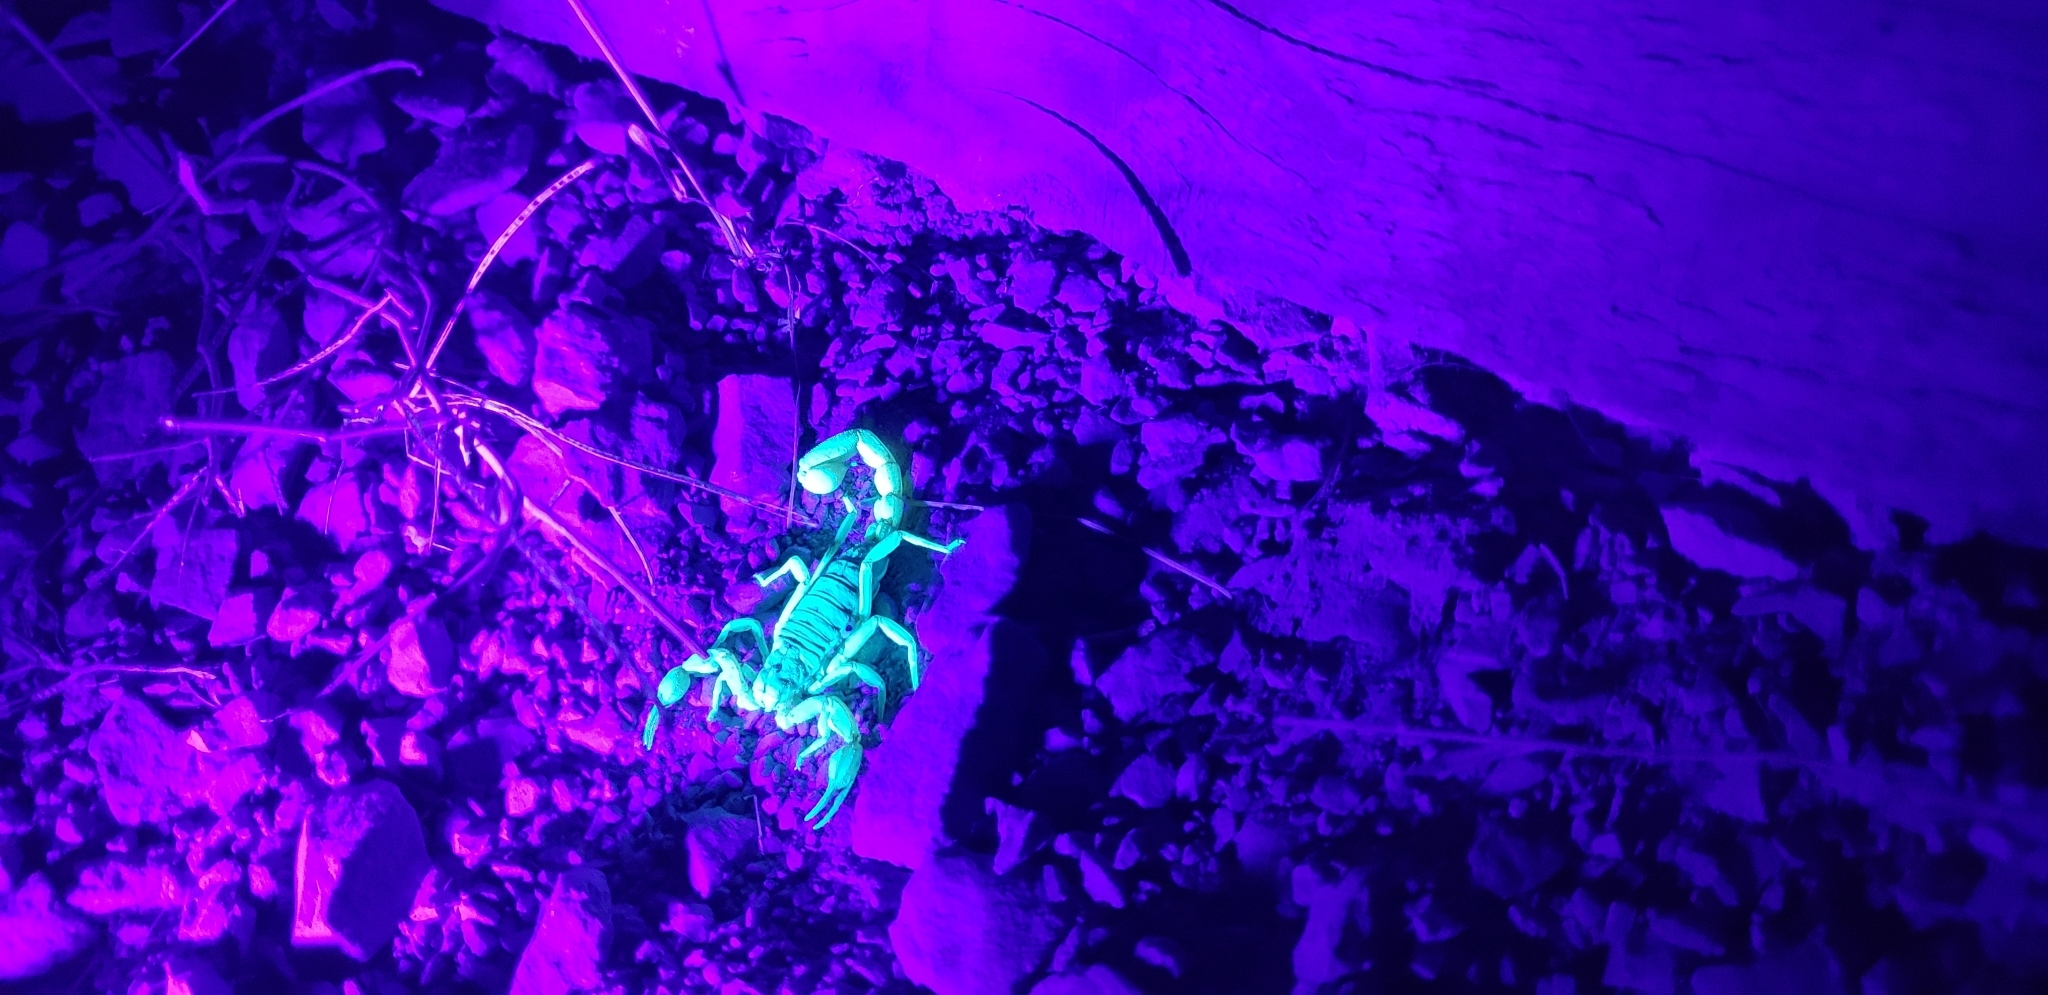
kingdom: Animalia
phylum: Arthropoda
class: Arachnida
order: Scorpiones
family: Vaejovidae
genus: Paruroctonus
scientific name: Paruroctonus silvestrii
